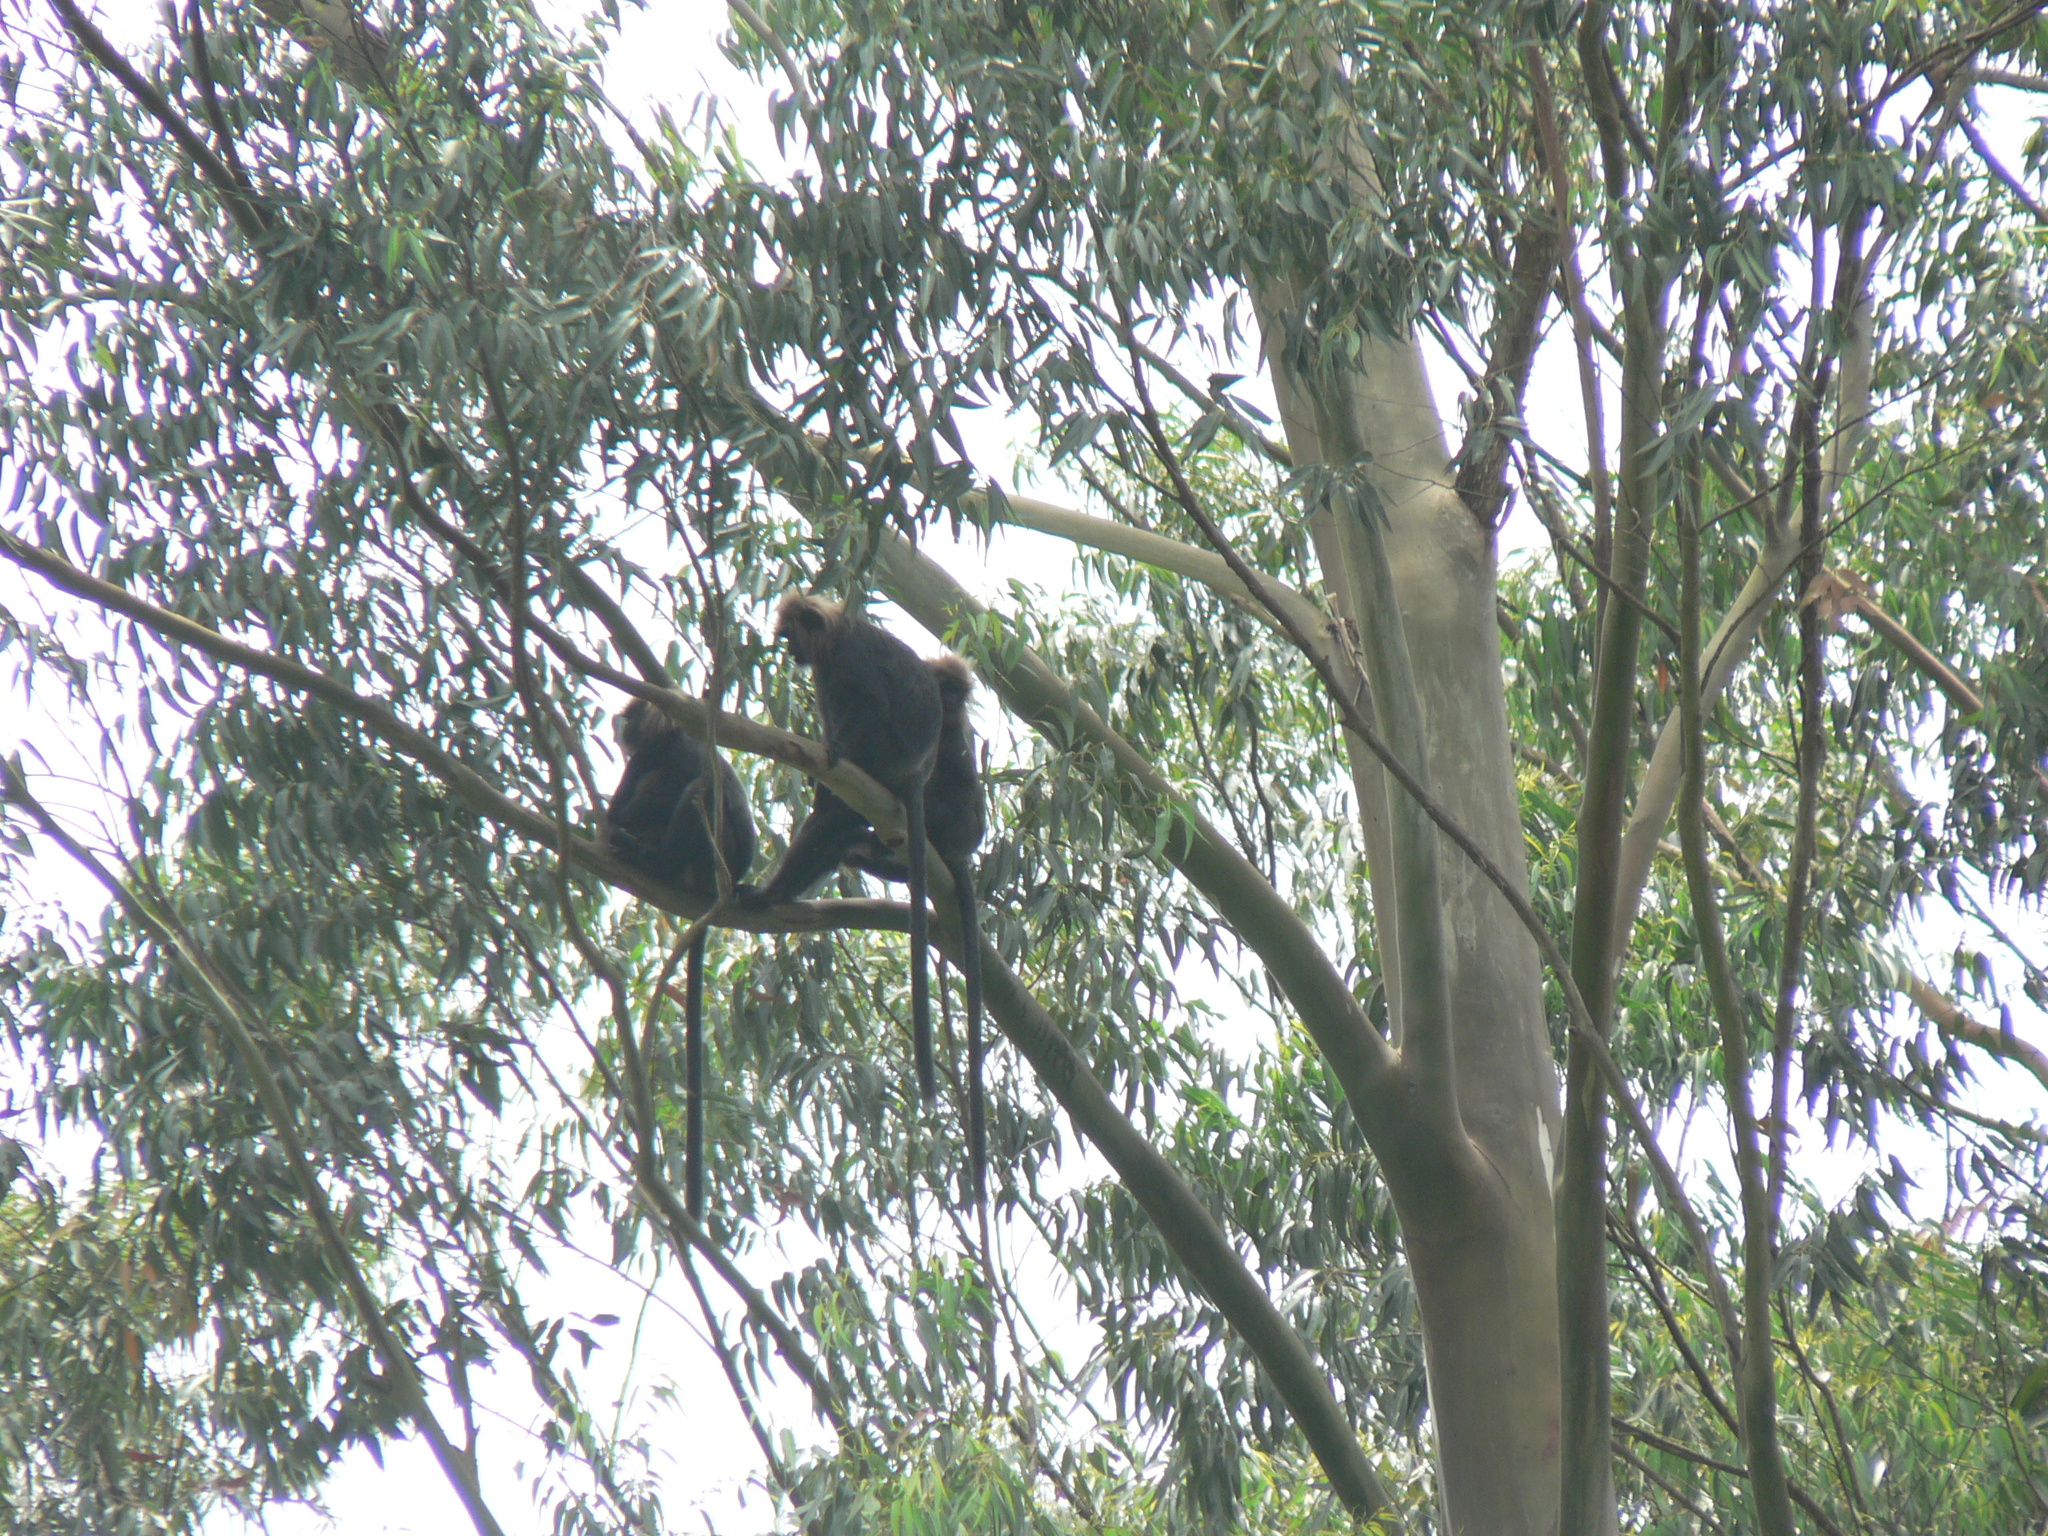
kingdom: Animalia
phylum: Chordata
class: Mammalia
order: Primates
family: Cercopithecidae
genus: Semnopithecus
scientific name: Semnopithecus johnii
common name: Nilgiri langur
